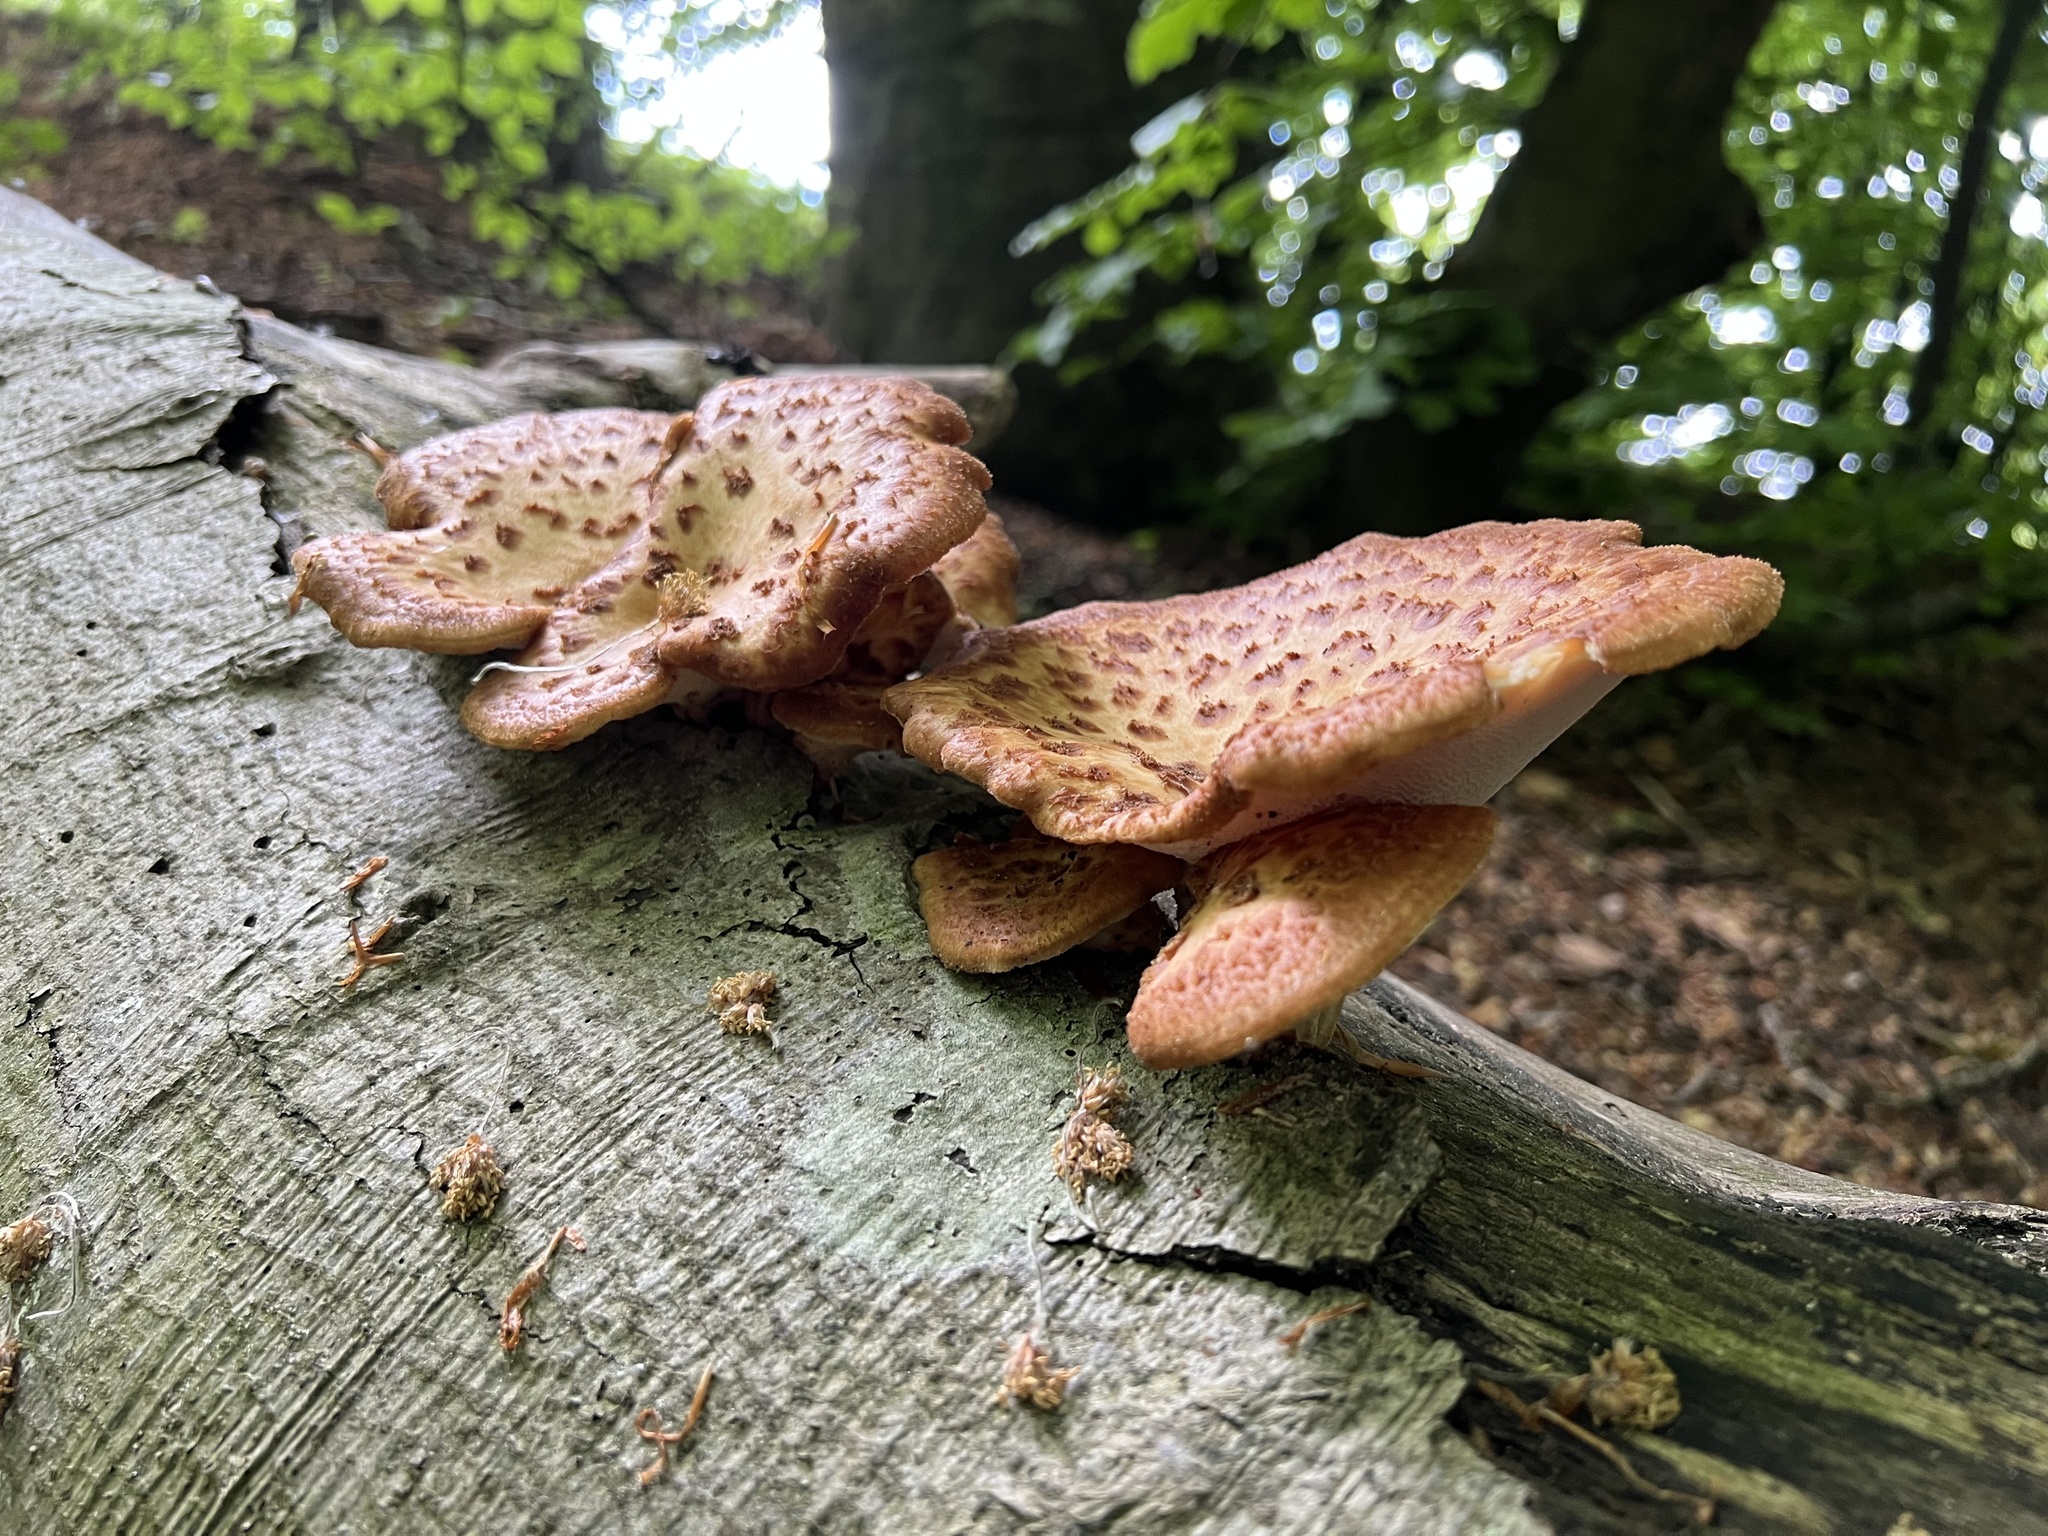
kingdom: Fungi
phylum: Basidiomycota
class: Agaricomycetes
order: Polyporales
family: Polyporaceae
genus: Cerioporus
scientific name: Cerioporus squamosus
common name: Dryad's saddle
